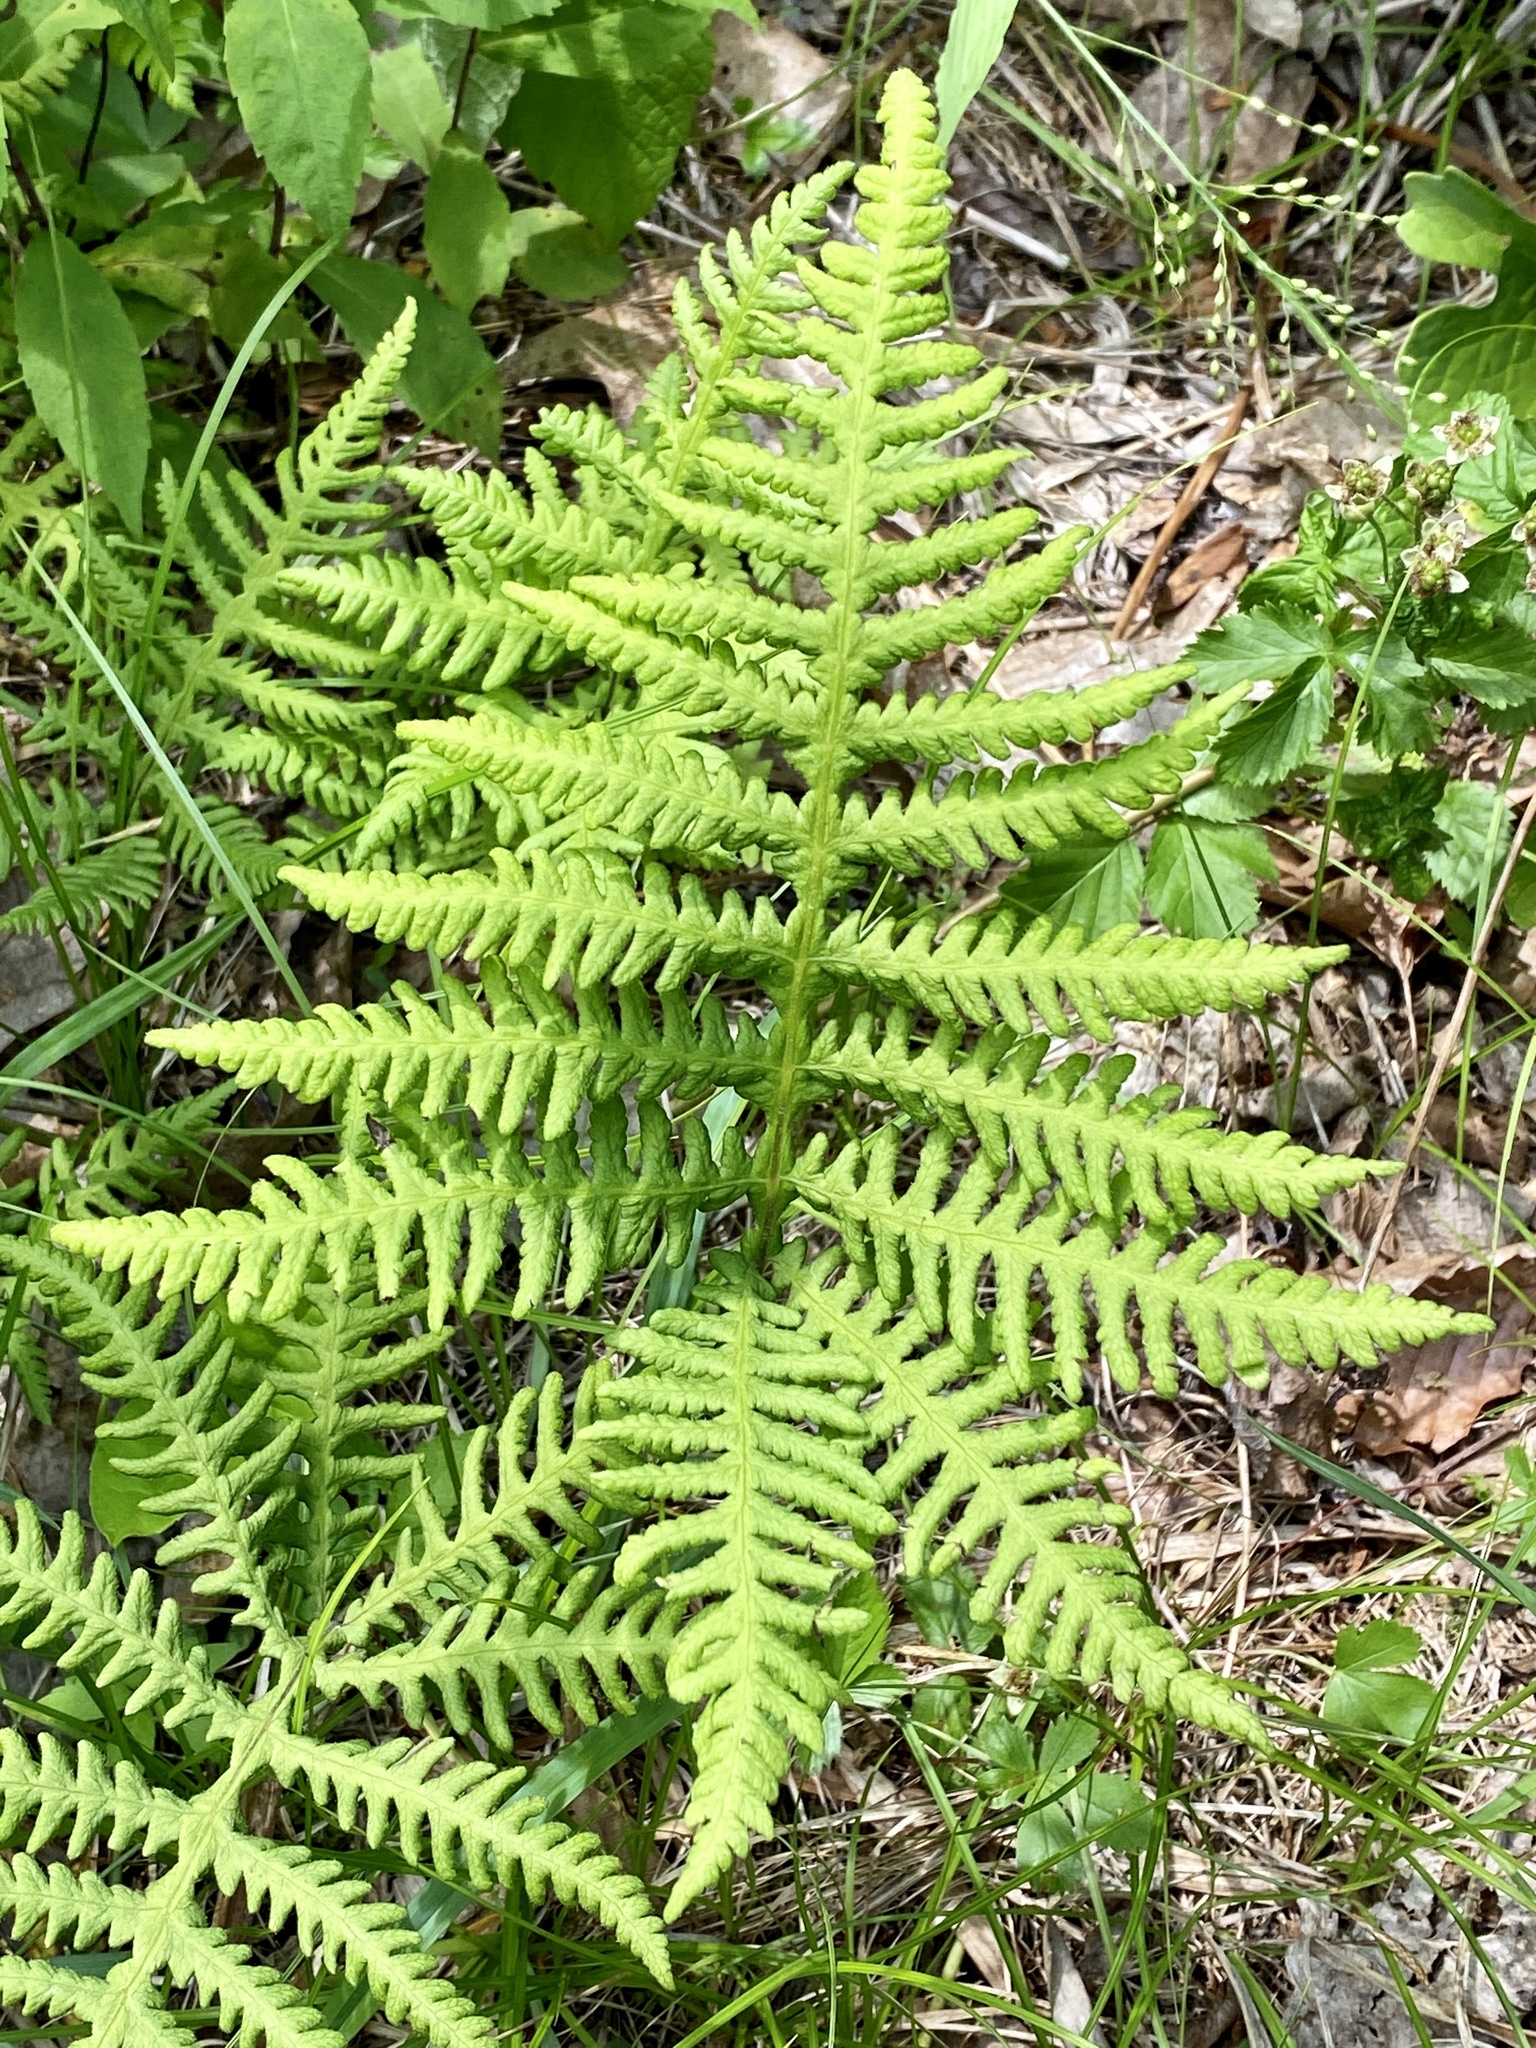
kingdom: Plantae
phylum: Tracheophyta
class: Polypodiopsida
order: Polypodiales
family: Thelypteridaceae
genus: Phegopteris
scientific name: Phegopteris hexagonoptera
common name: Broad beech fern
